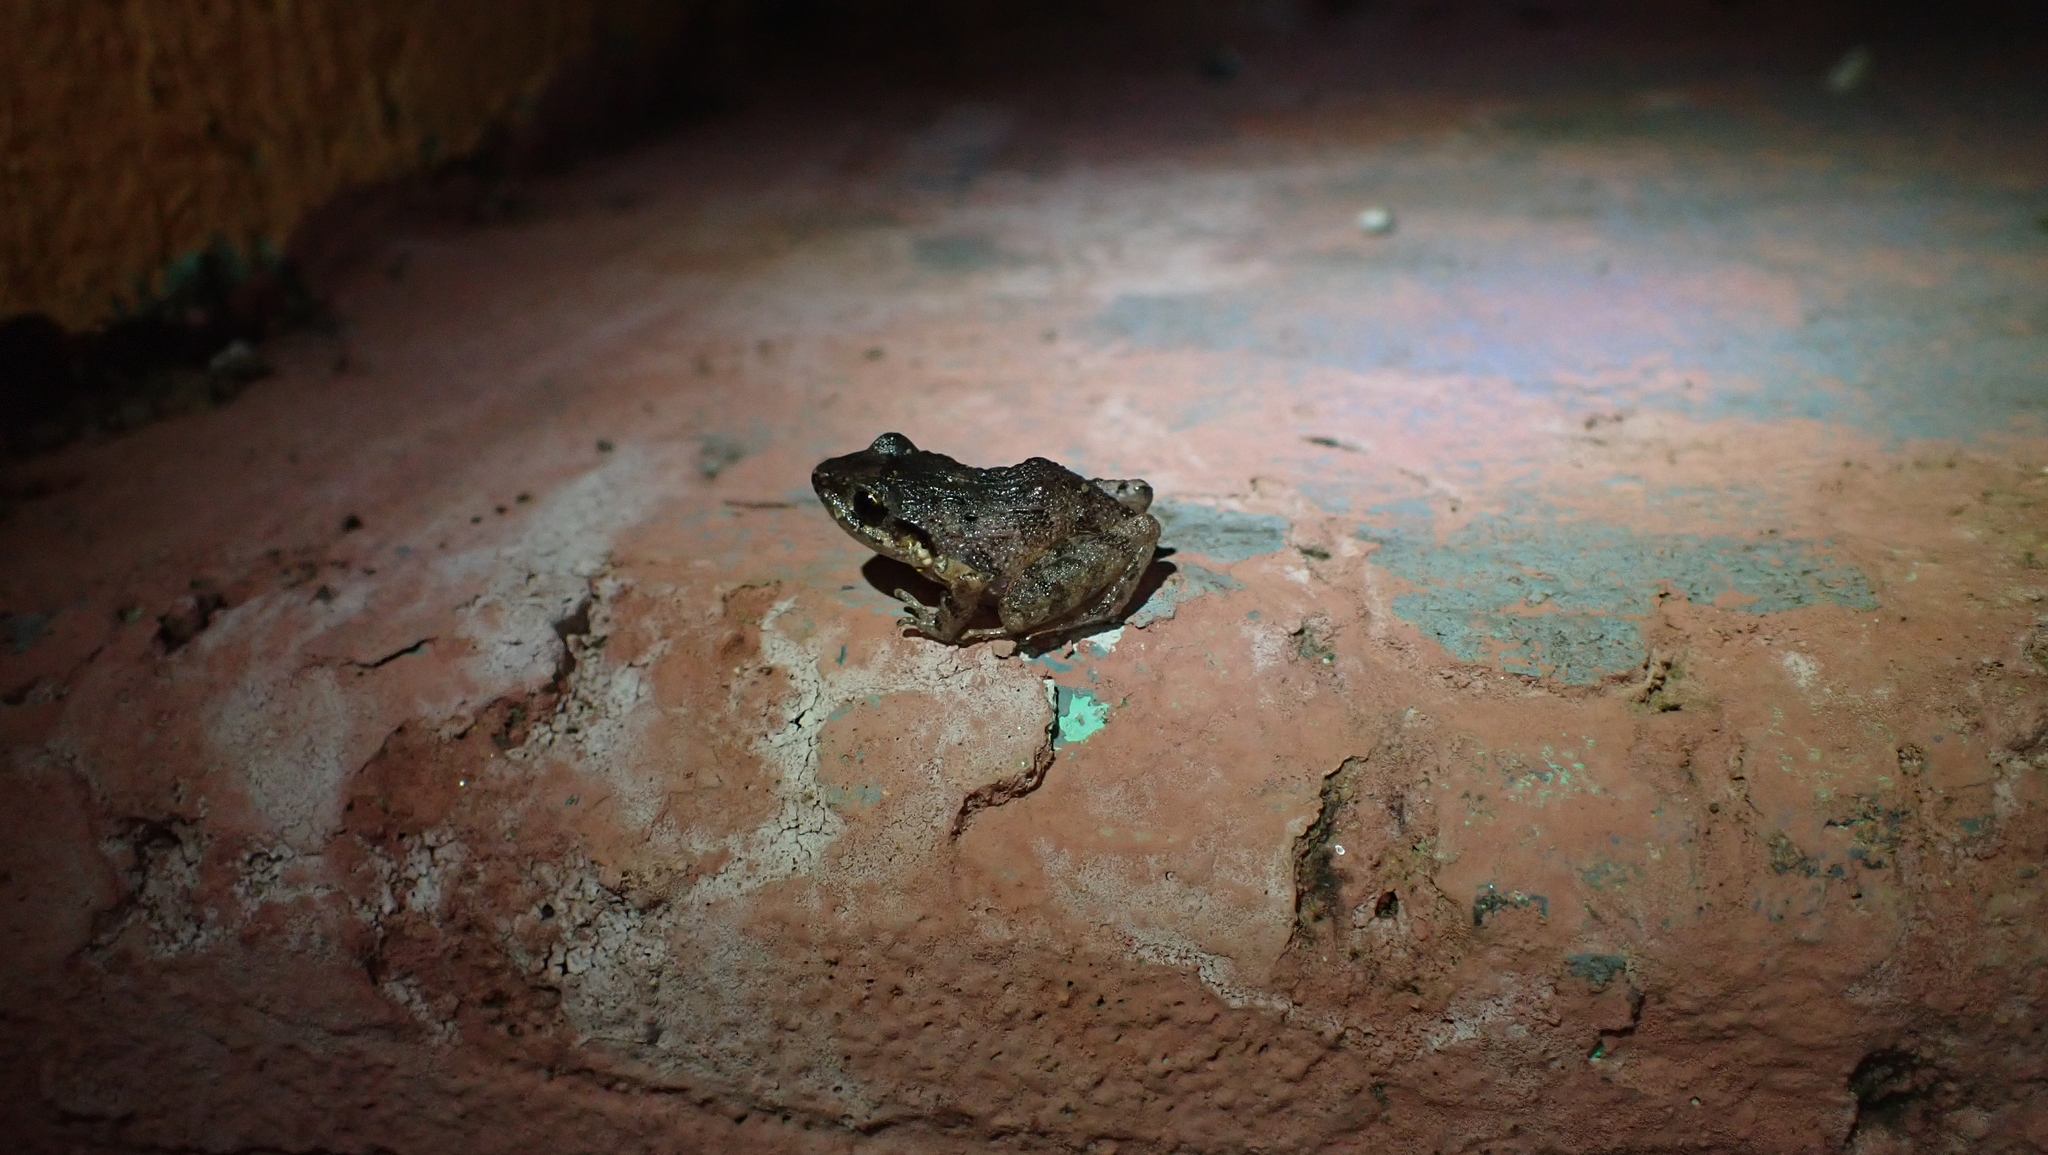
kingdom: Animalia
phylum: Chordata
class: Amphibia
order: Anura
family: Craugastoridae
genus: Craugastor
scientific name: Craugastor bransfordii
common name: Bransford's robber frog
